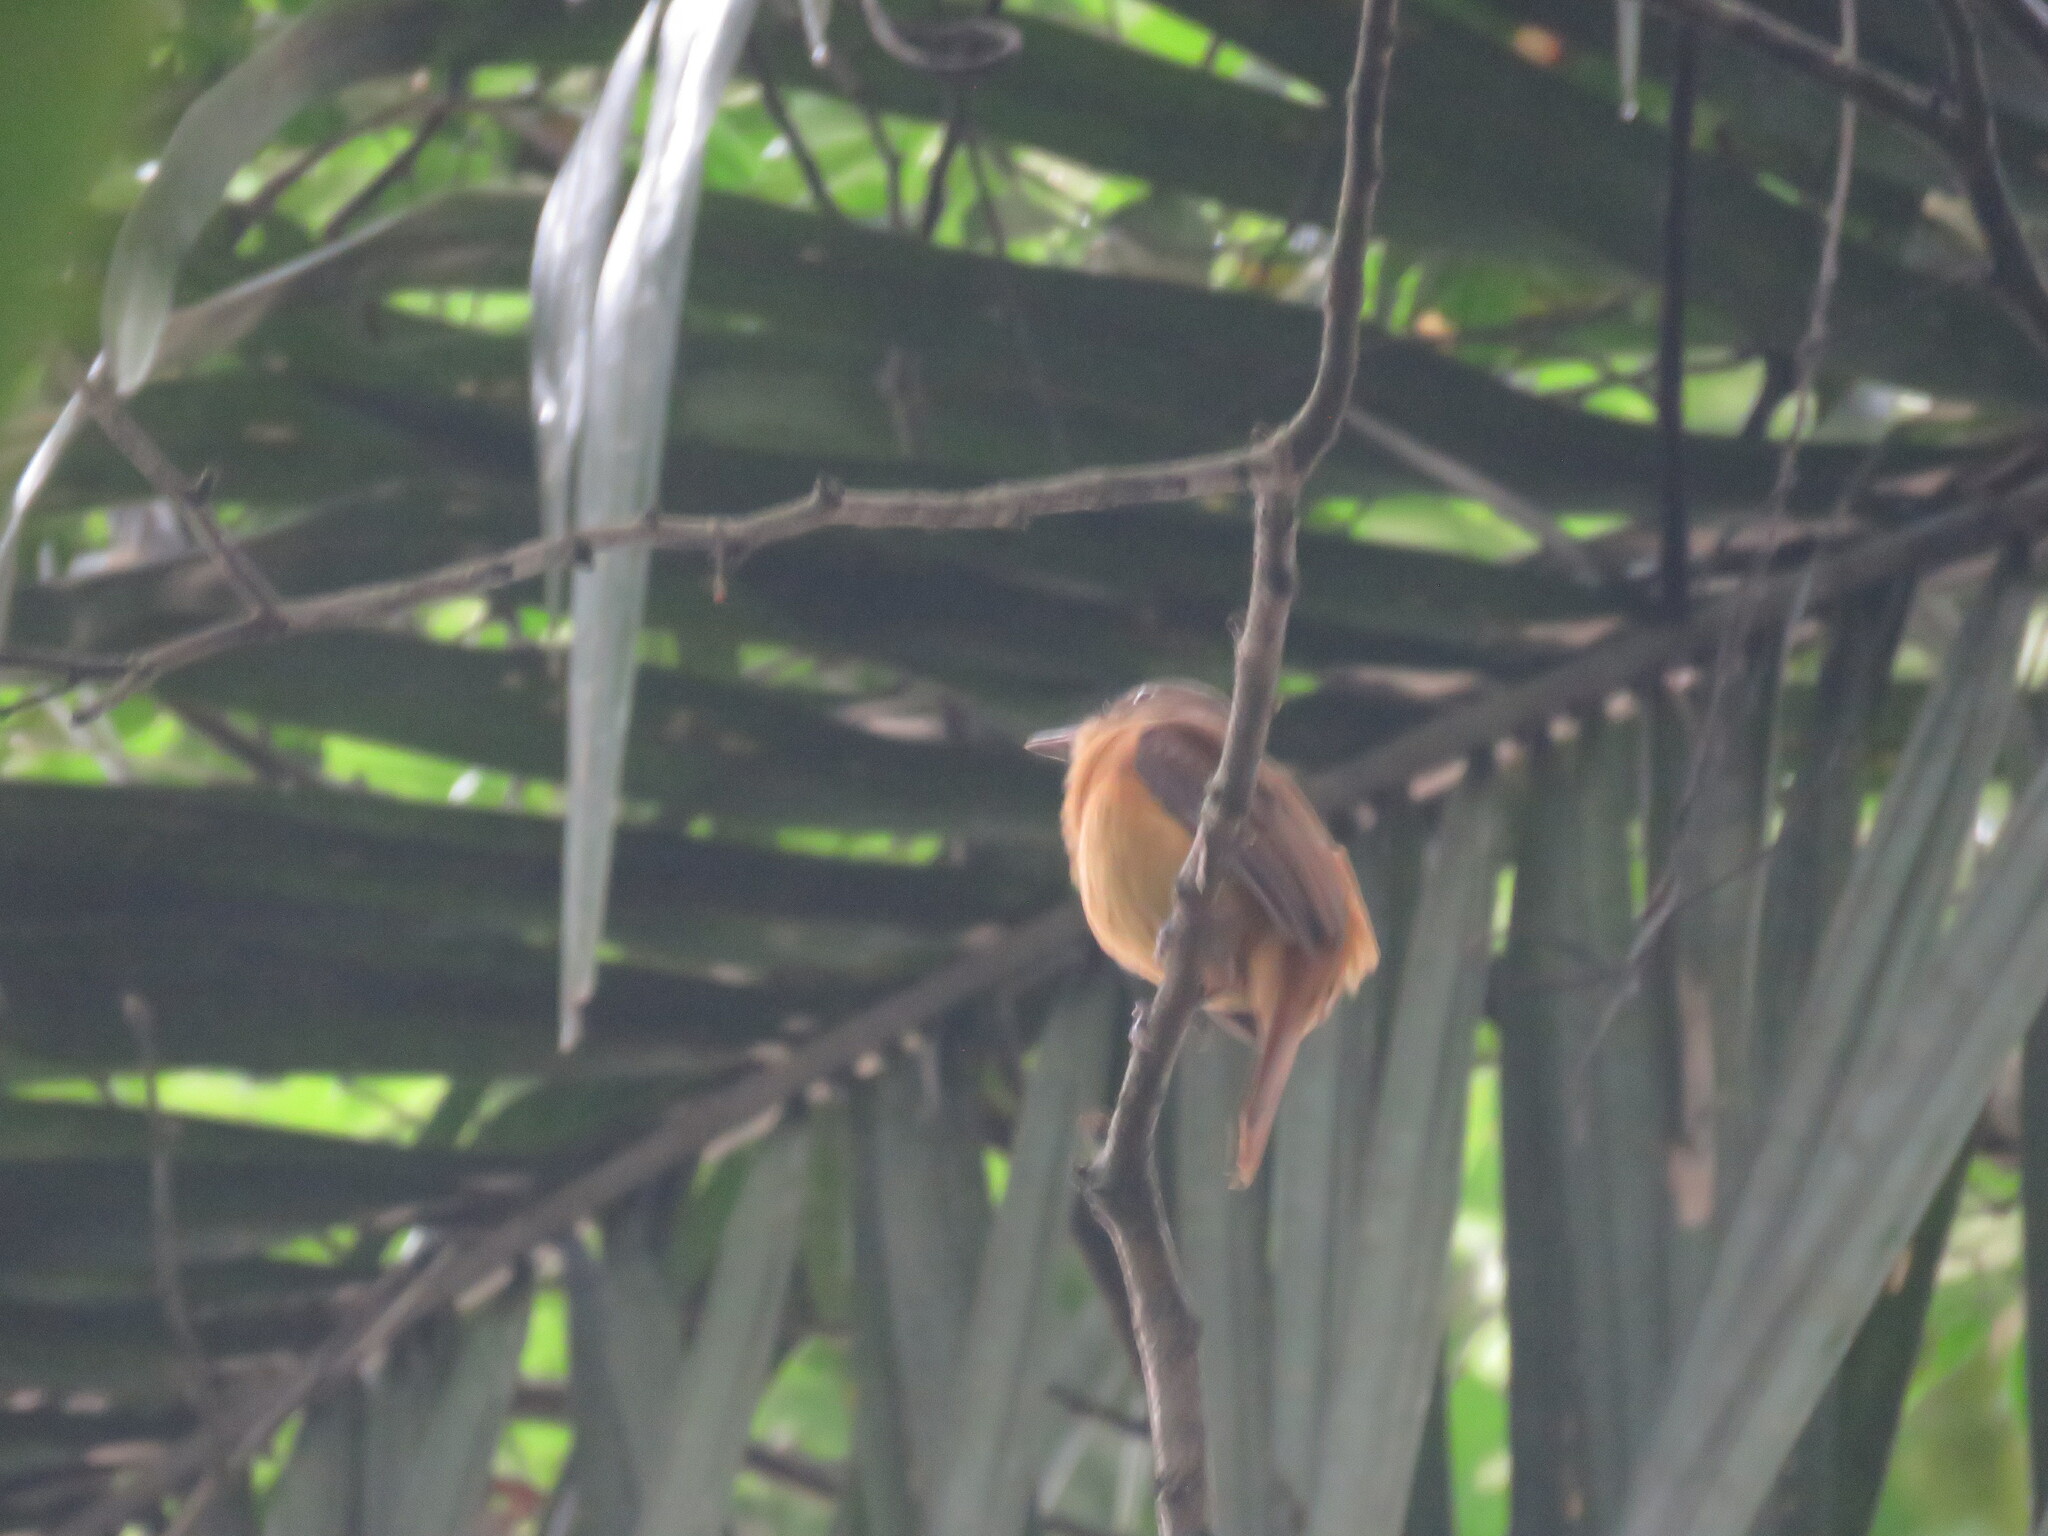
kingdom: Animalia
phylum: Chordata
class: Aves
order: Passeriformes
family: Tyrannidae
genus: Attila
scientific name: Attila bolivianus
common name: White-eyed attila
